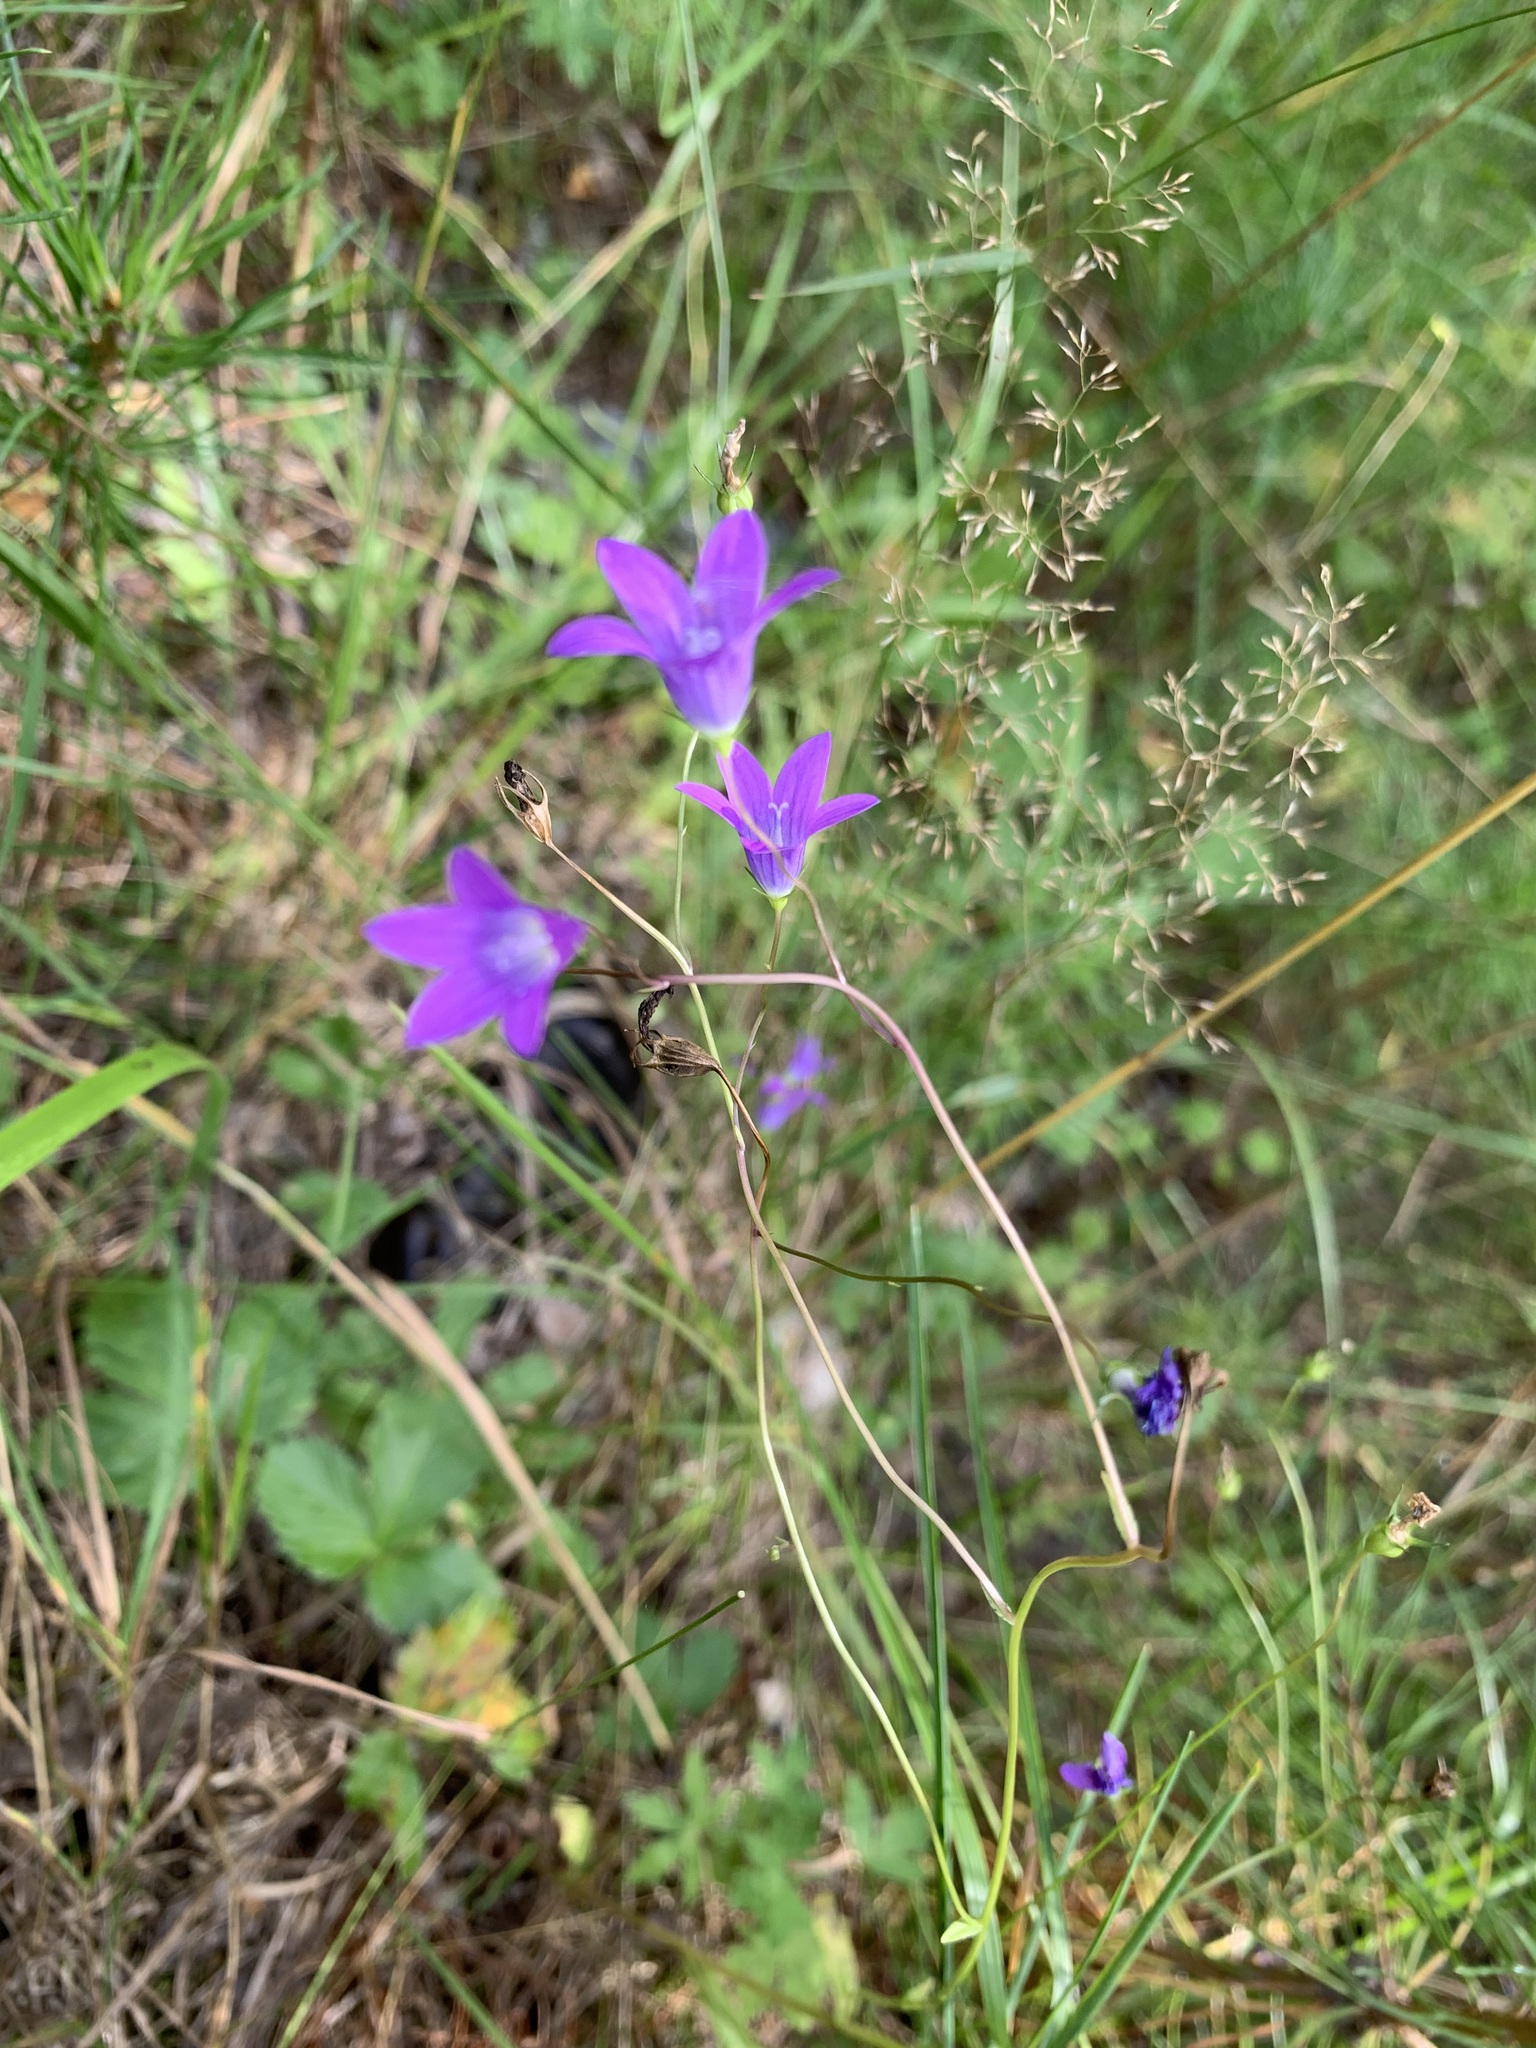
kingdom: Plantae
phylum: Tracheophyta
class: Magnoliopsida
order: Asterales
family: Campanulaceae
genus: Campanula
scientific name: Campanula patula
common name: Spreading bellflower
